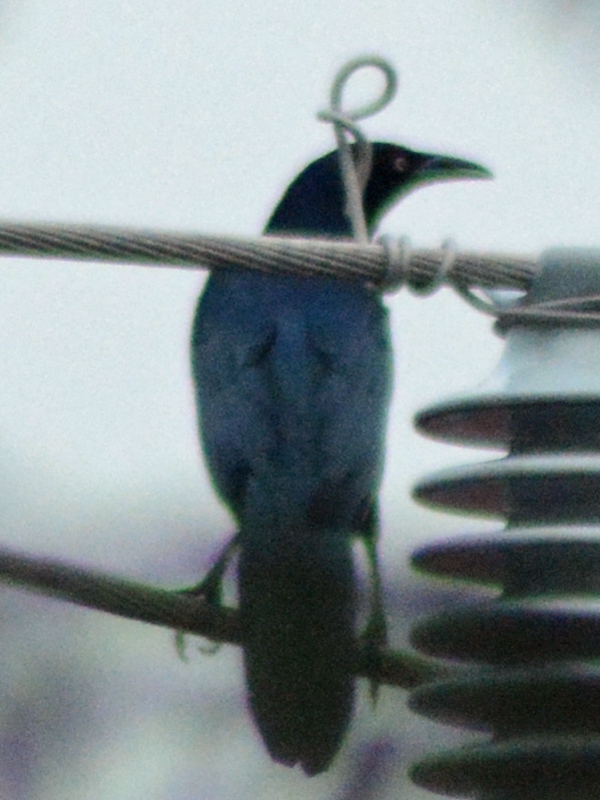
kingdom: Animalia
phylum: Chordata
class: Aves
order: Passeriformes
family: Icteridae
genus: Quiscalus
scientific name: Quiscalus mexicanus
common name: Great-tailed grackle
